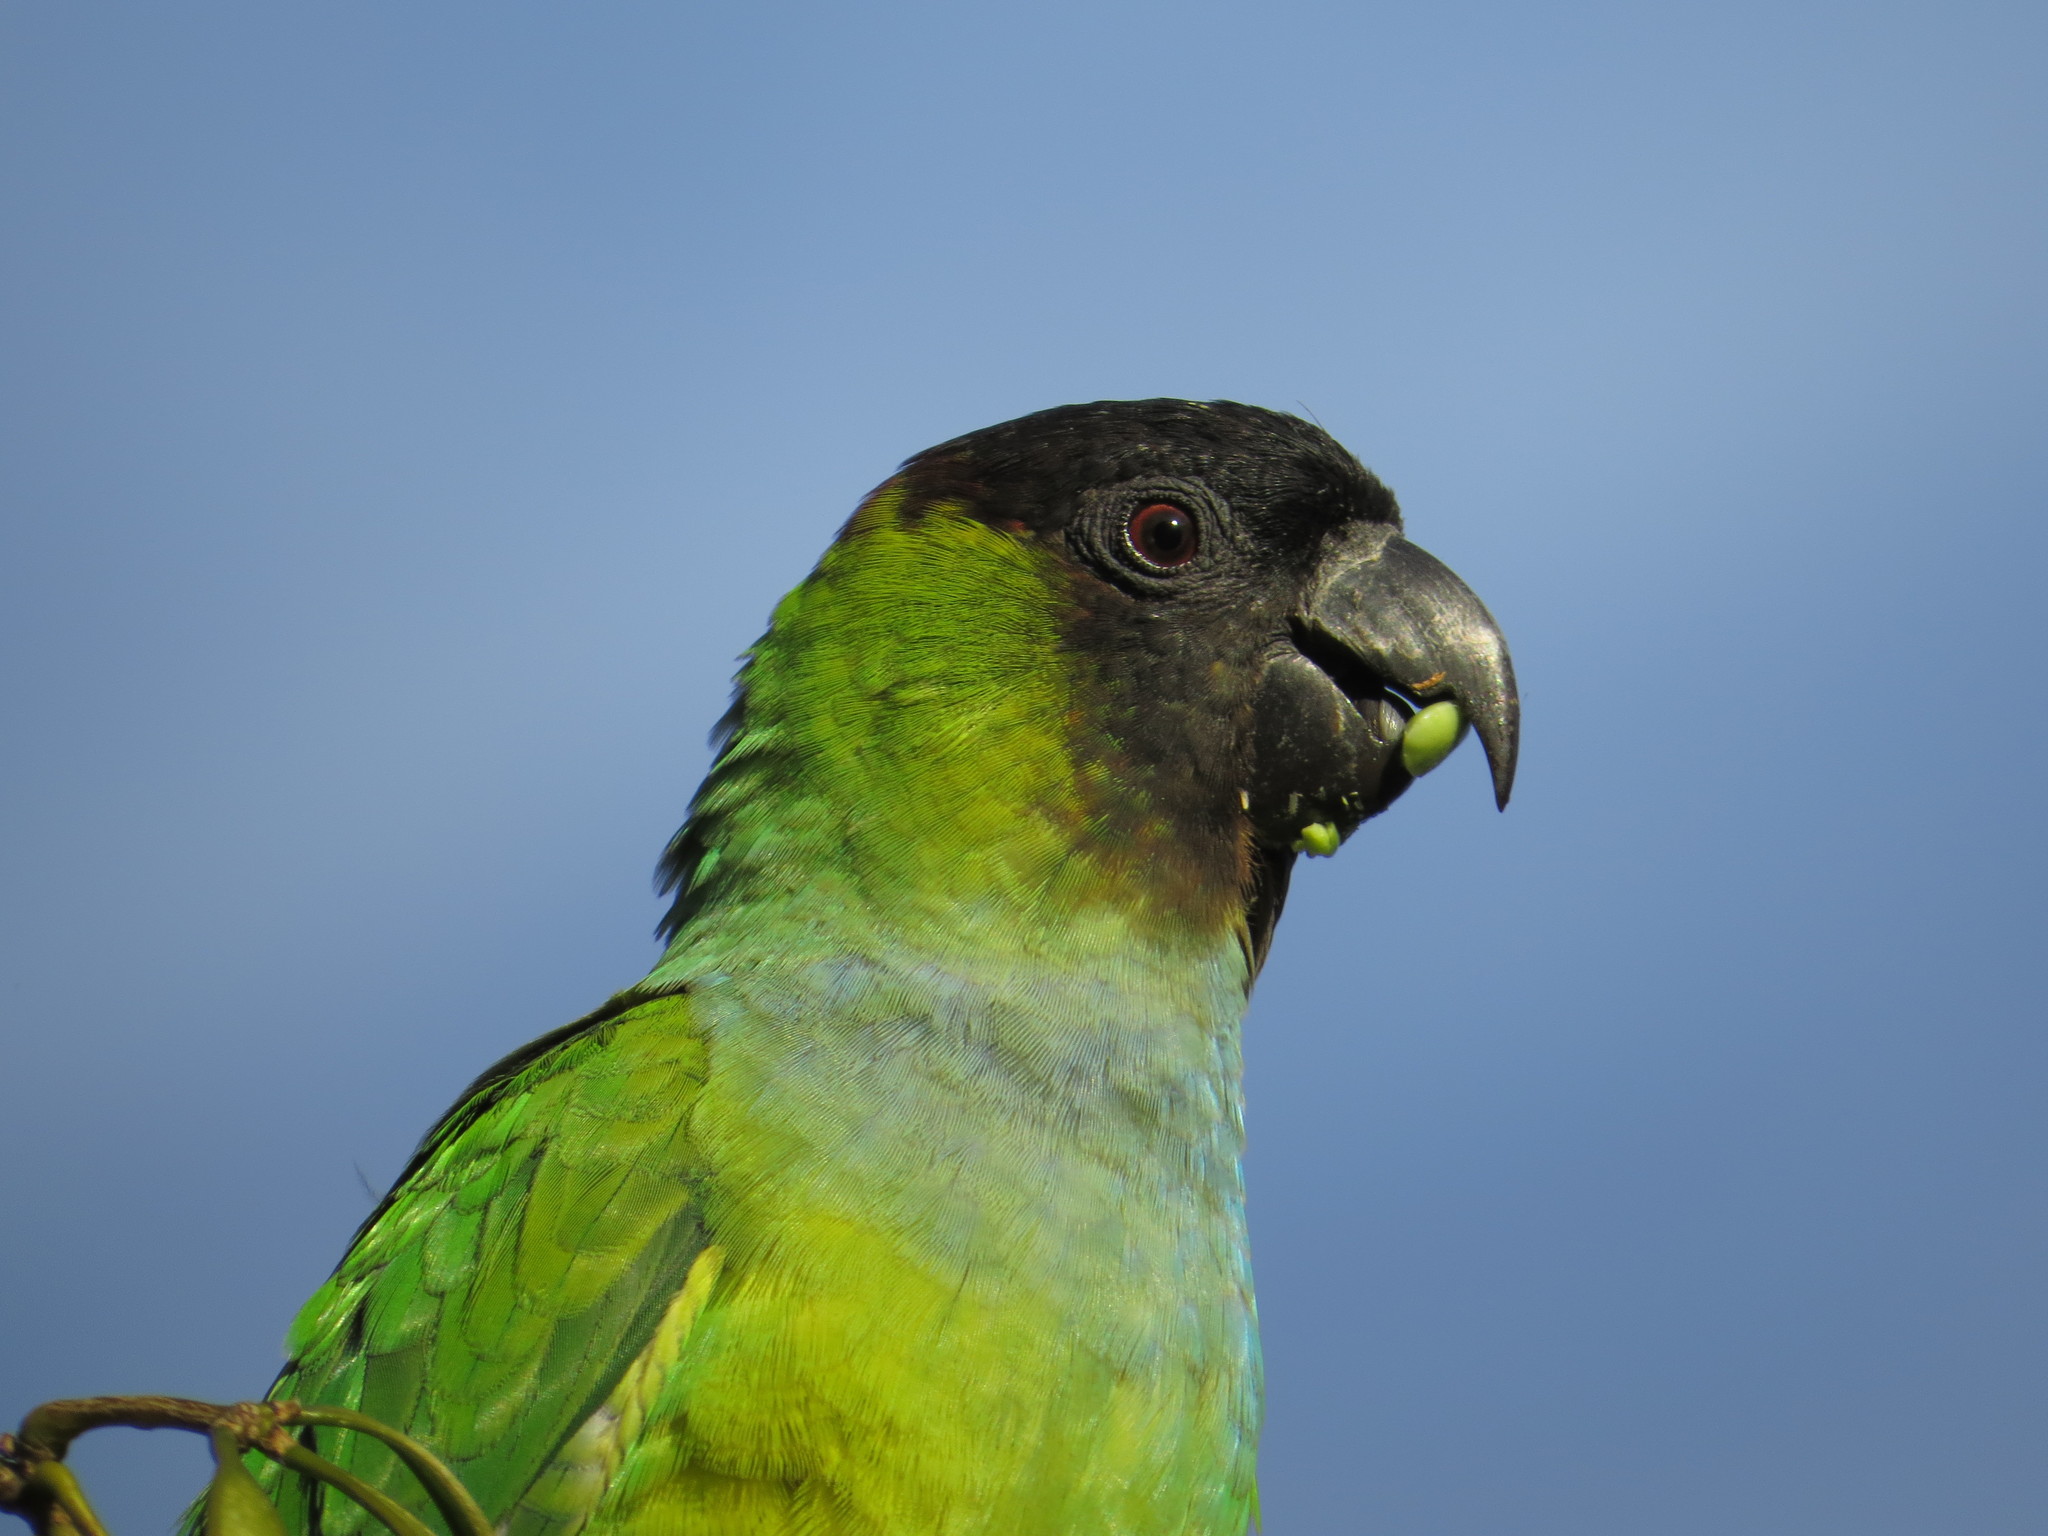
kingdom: Animalia
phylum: Chordata
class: Aves
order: Psittaciformes
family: Psittacidae
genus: Nandayus
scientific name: Nandayus nenday
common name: Nanday parakeet
